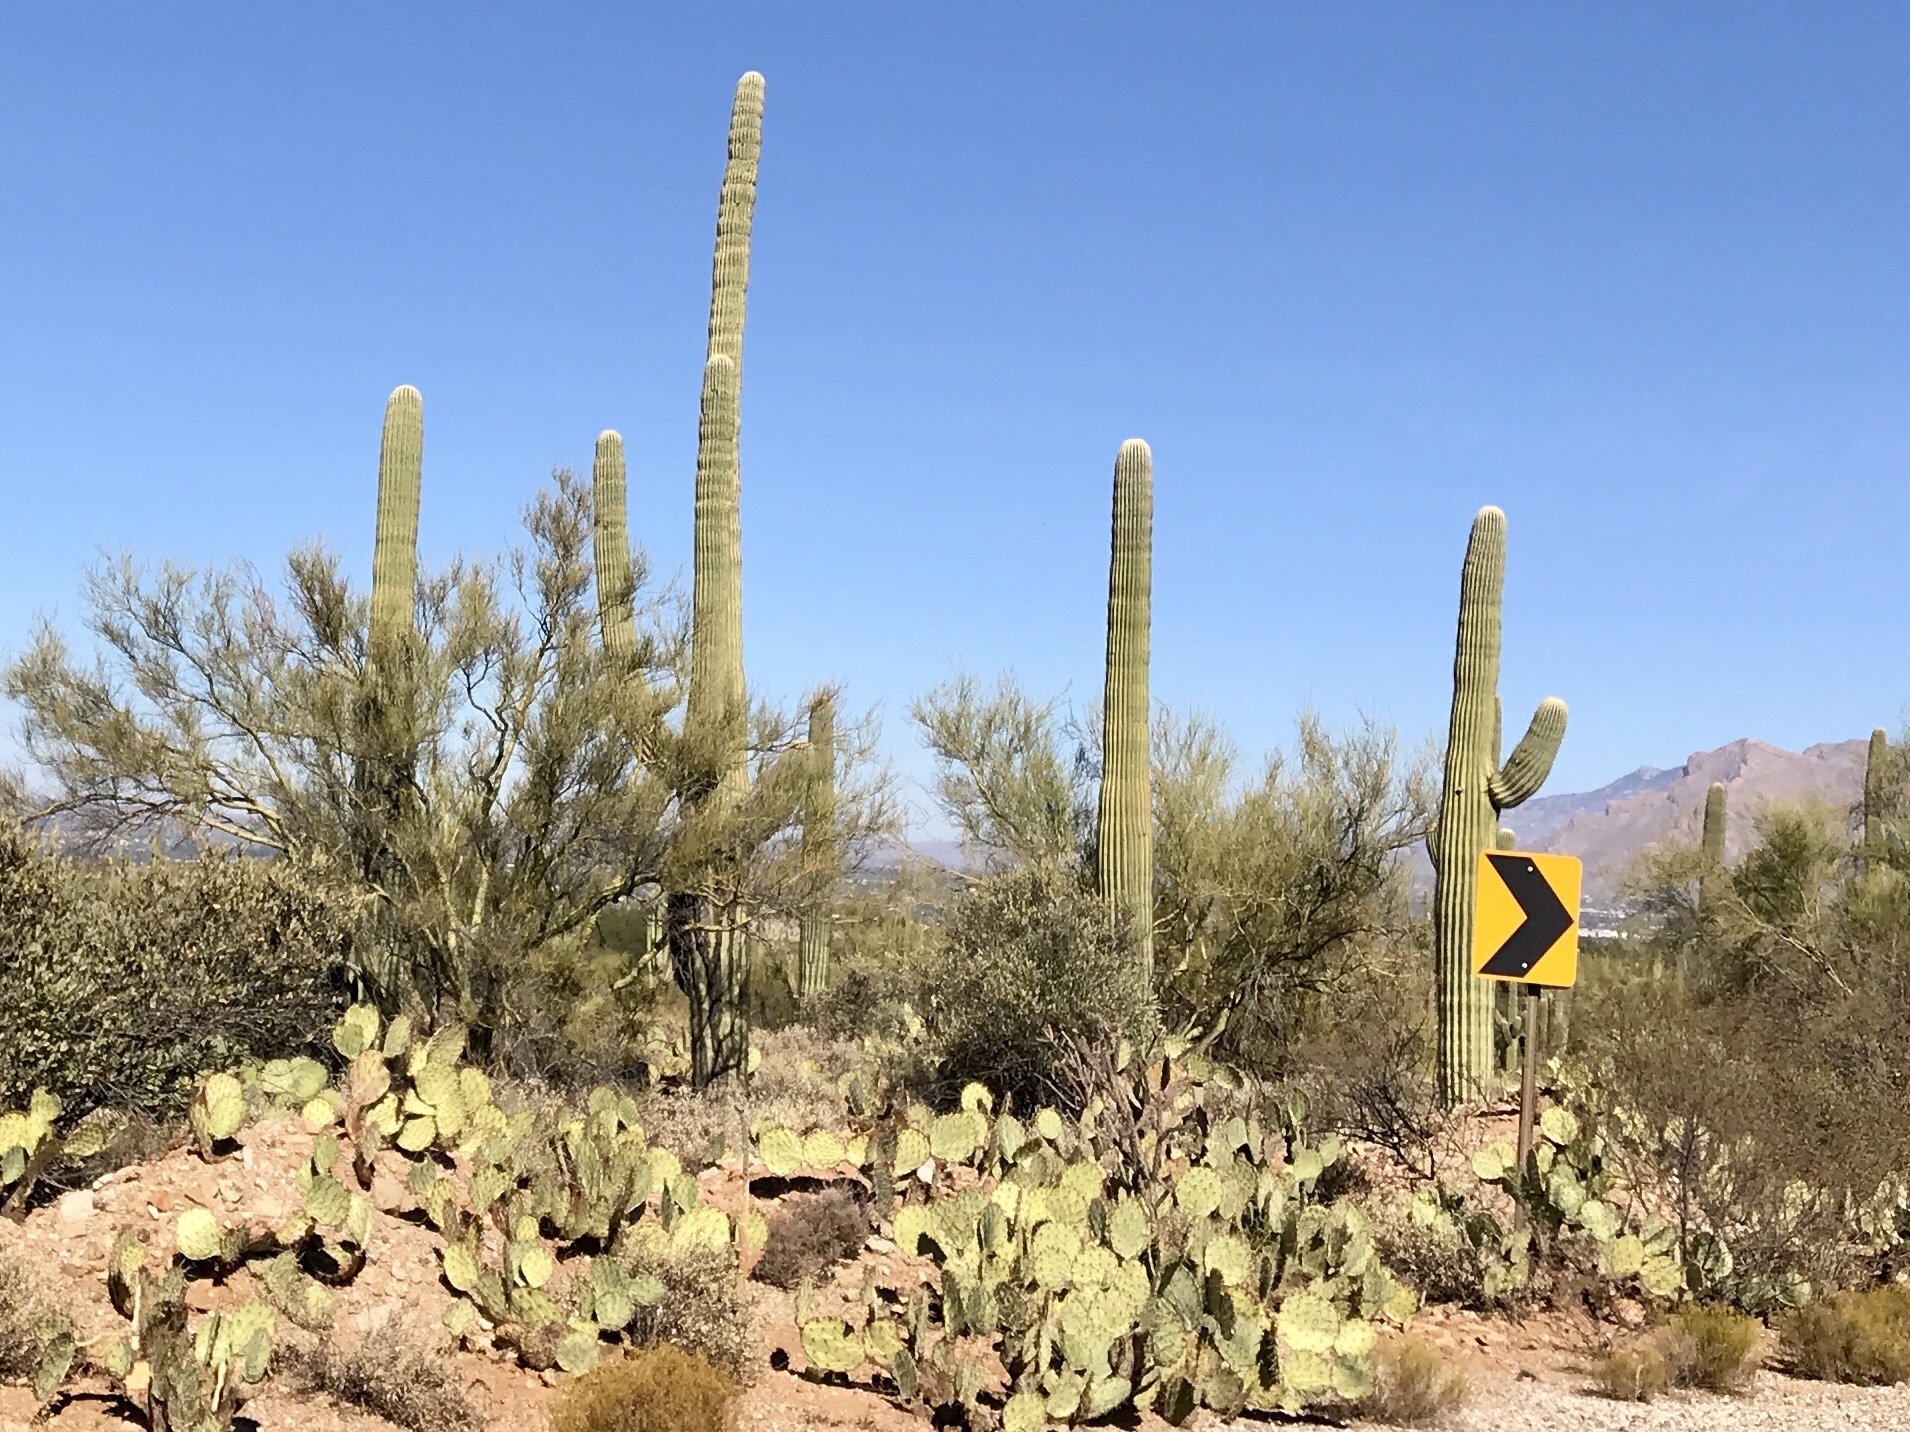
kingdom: Plantae
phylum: Tracheophyta
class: Magnoliopsida
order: Caryophyllales
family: Cactaceae
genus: Carnegiea
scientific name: Carnegiea gigantea
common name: Saguaro
